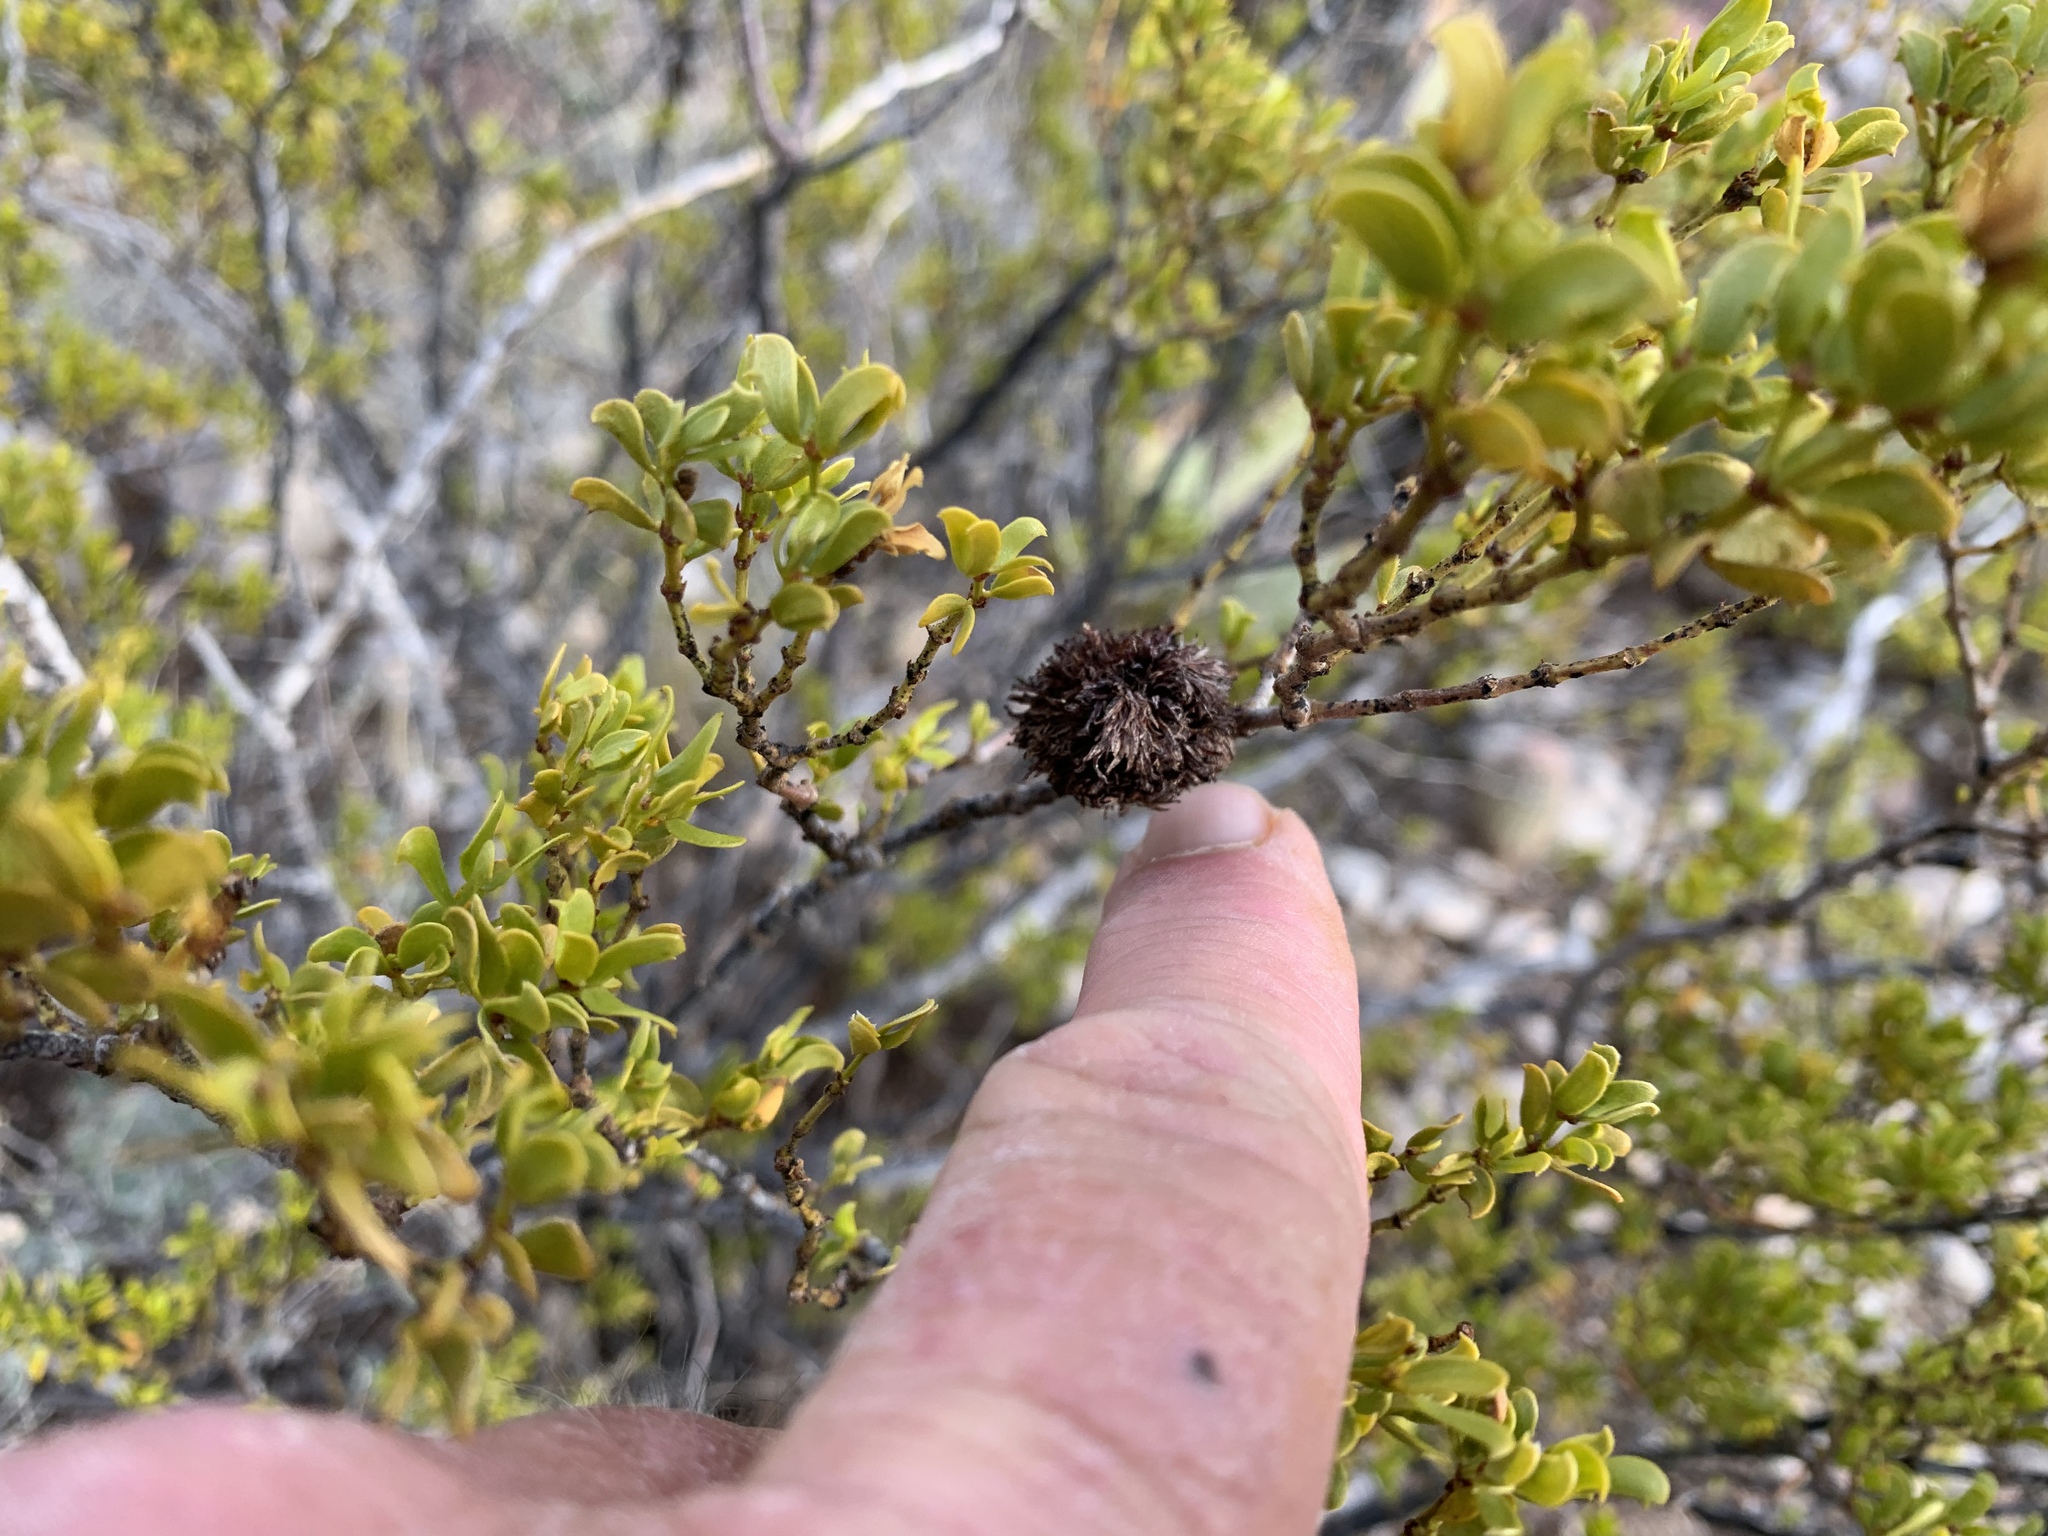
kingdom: Animalia
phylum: Arthropoda
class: Insecta
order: Diptera
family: Cecidomyiidae
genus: Asphondylia
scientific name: Asphondylia auripila
